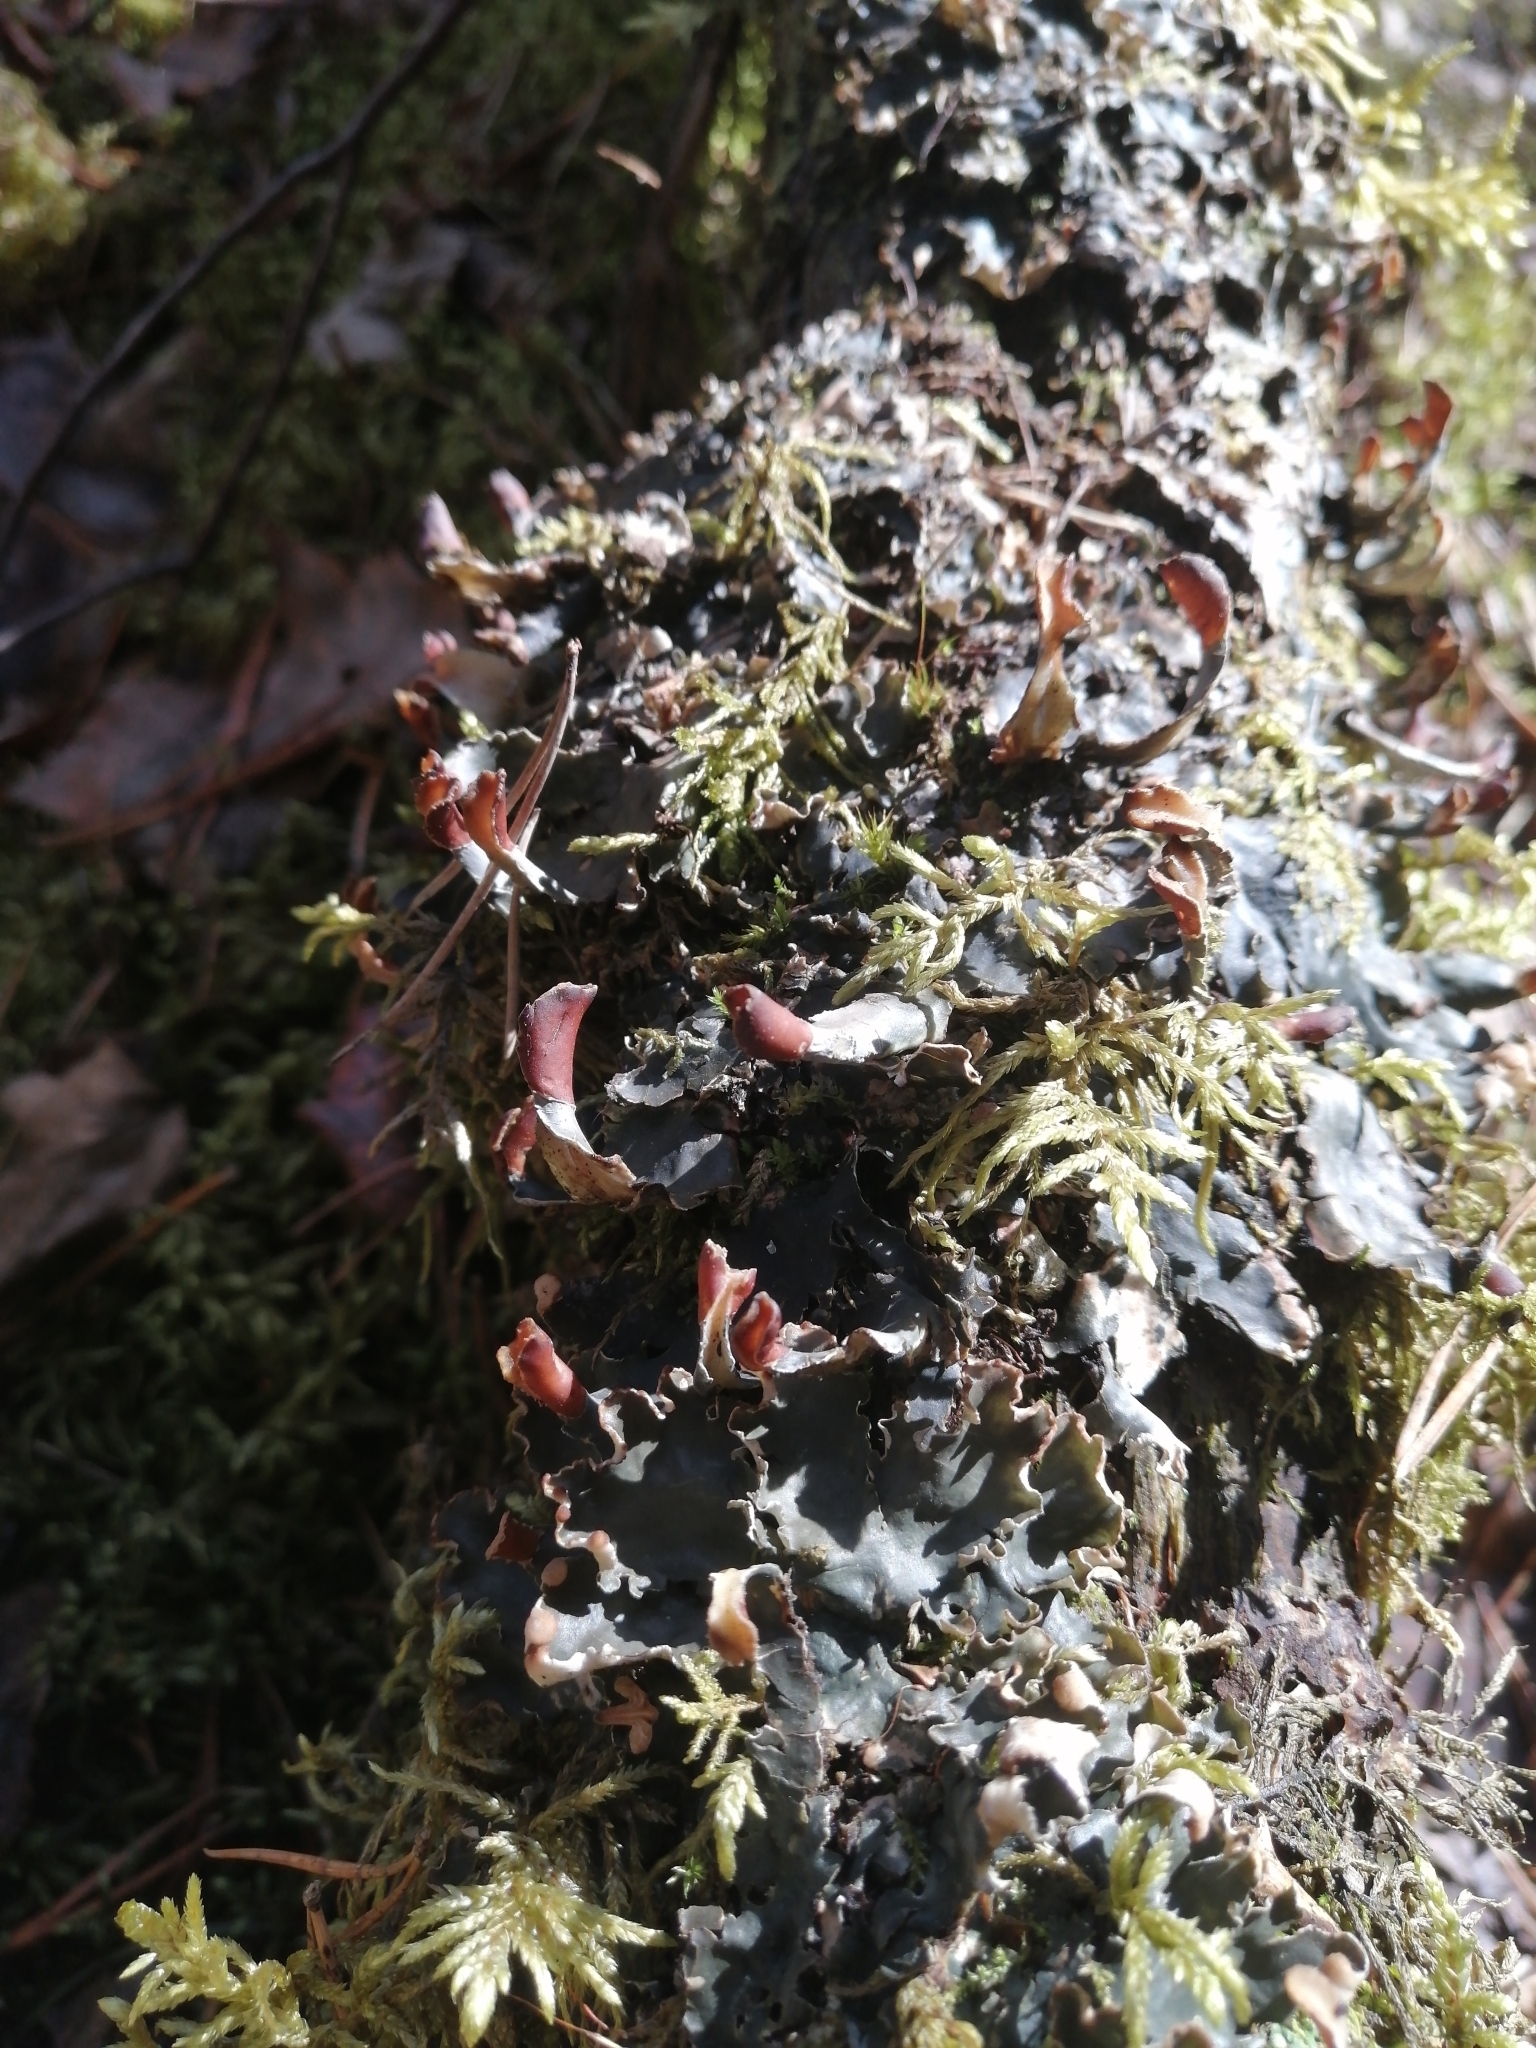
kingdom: Fungi
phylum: Ascomycota
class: Lecanoromycetes
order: Peltigerales
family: Peltigeraceae
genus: Peltigera
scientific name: Peltigera polydactylon
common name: Many-fruited pelt lichen
